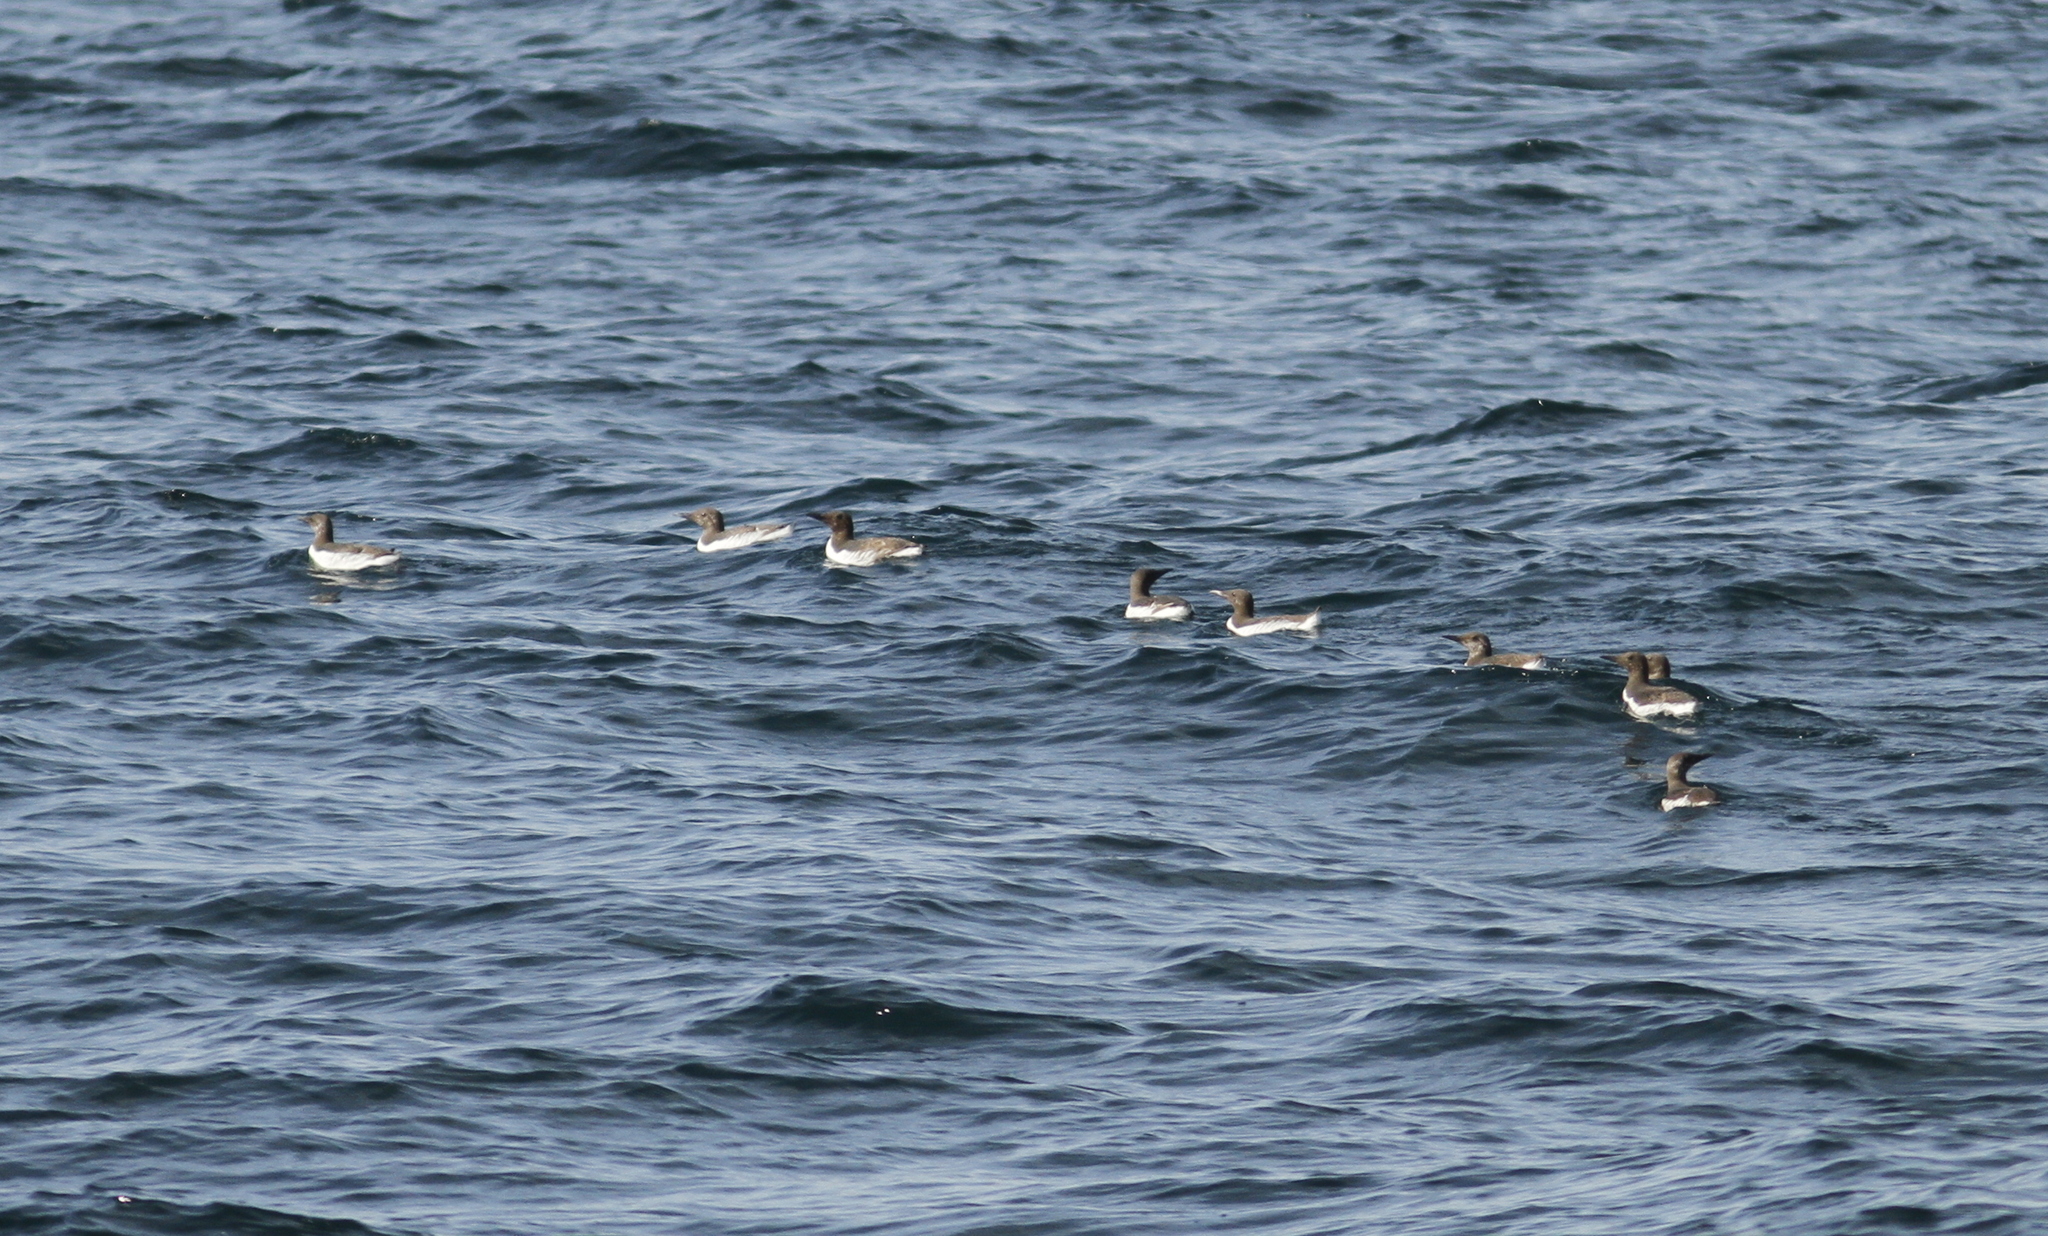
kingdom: Animalia
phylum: Chordata
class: Aves
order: Charadriiformes
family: Alcidae
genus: Uria
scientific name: Uria aalge
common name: Common murre
